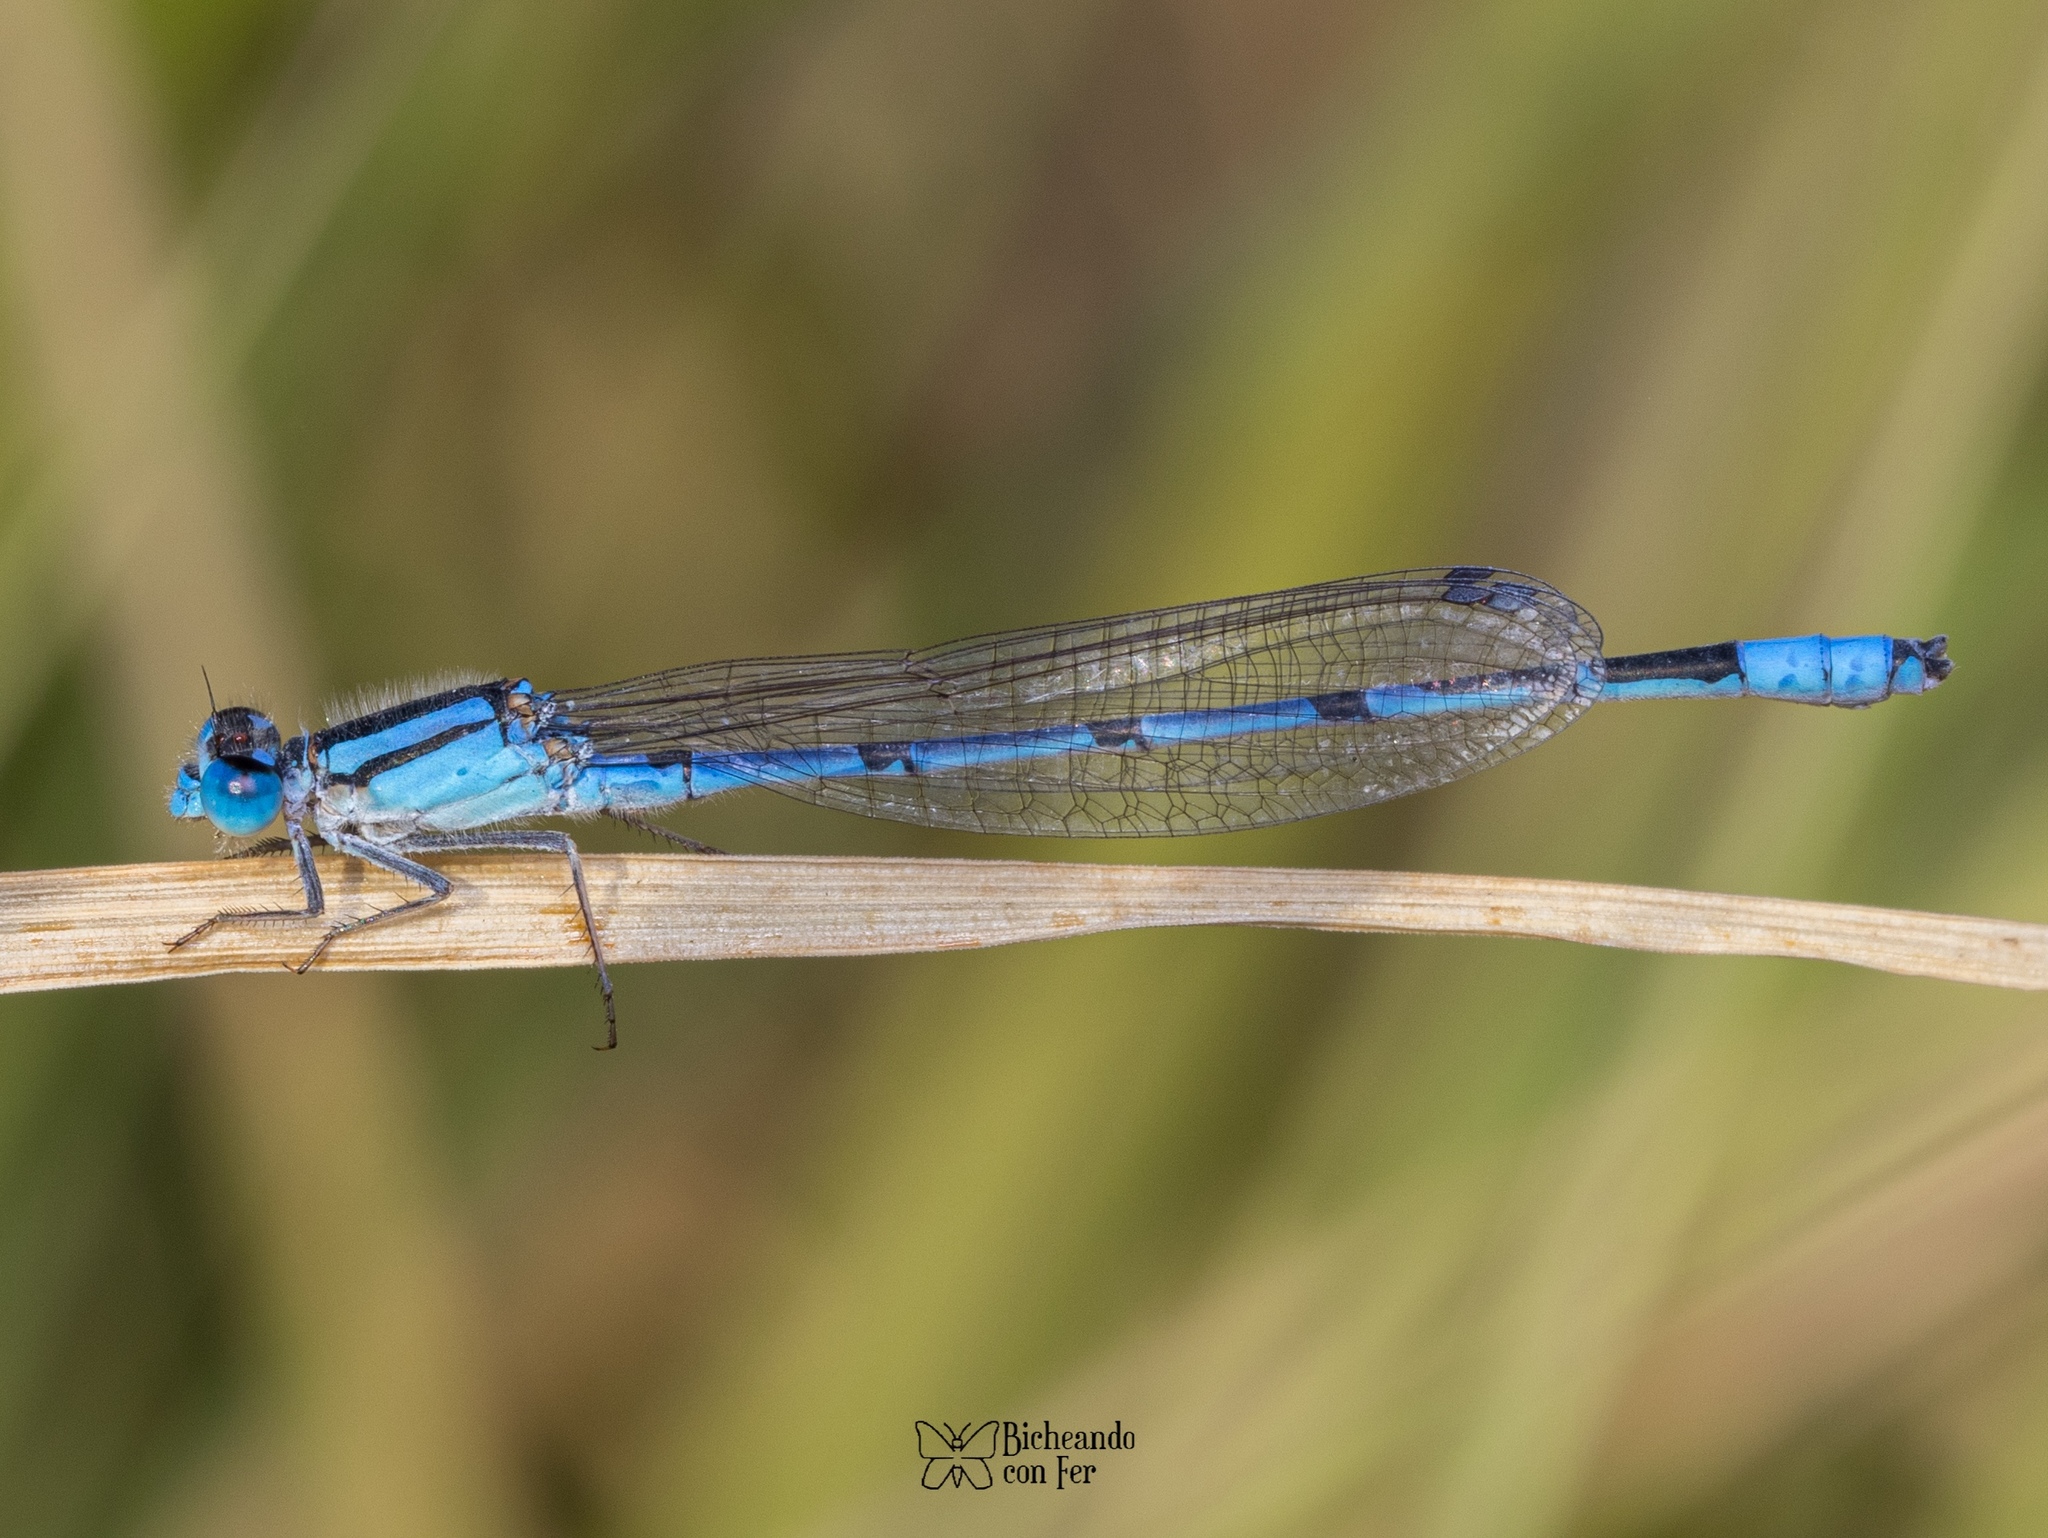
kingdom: Animalia
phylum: Arthropoda
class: Insecta
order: Odonata
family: Coenagrionidae
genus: Enallagma
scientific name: Enallagma civile
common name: Damselfly
